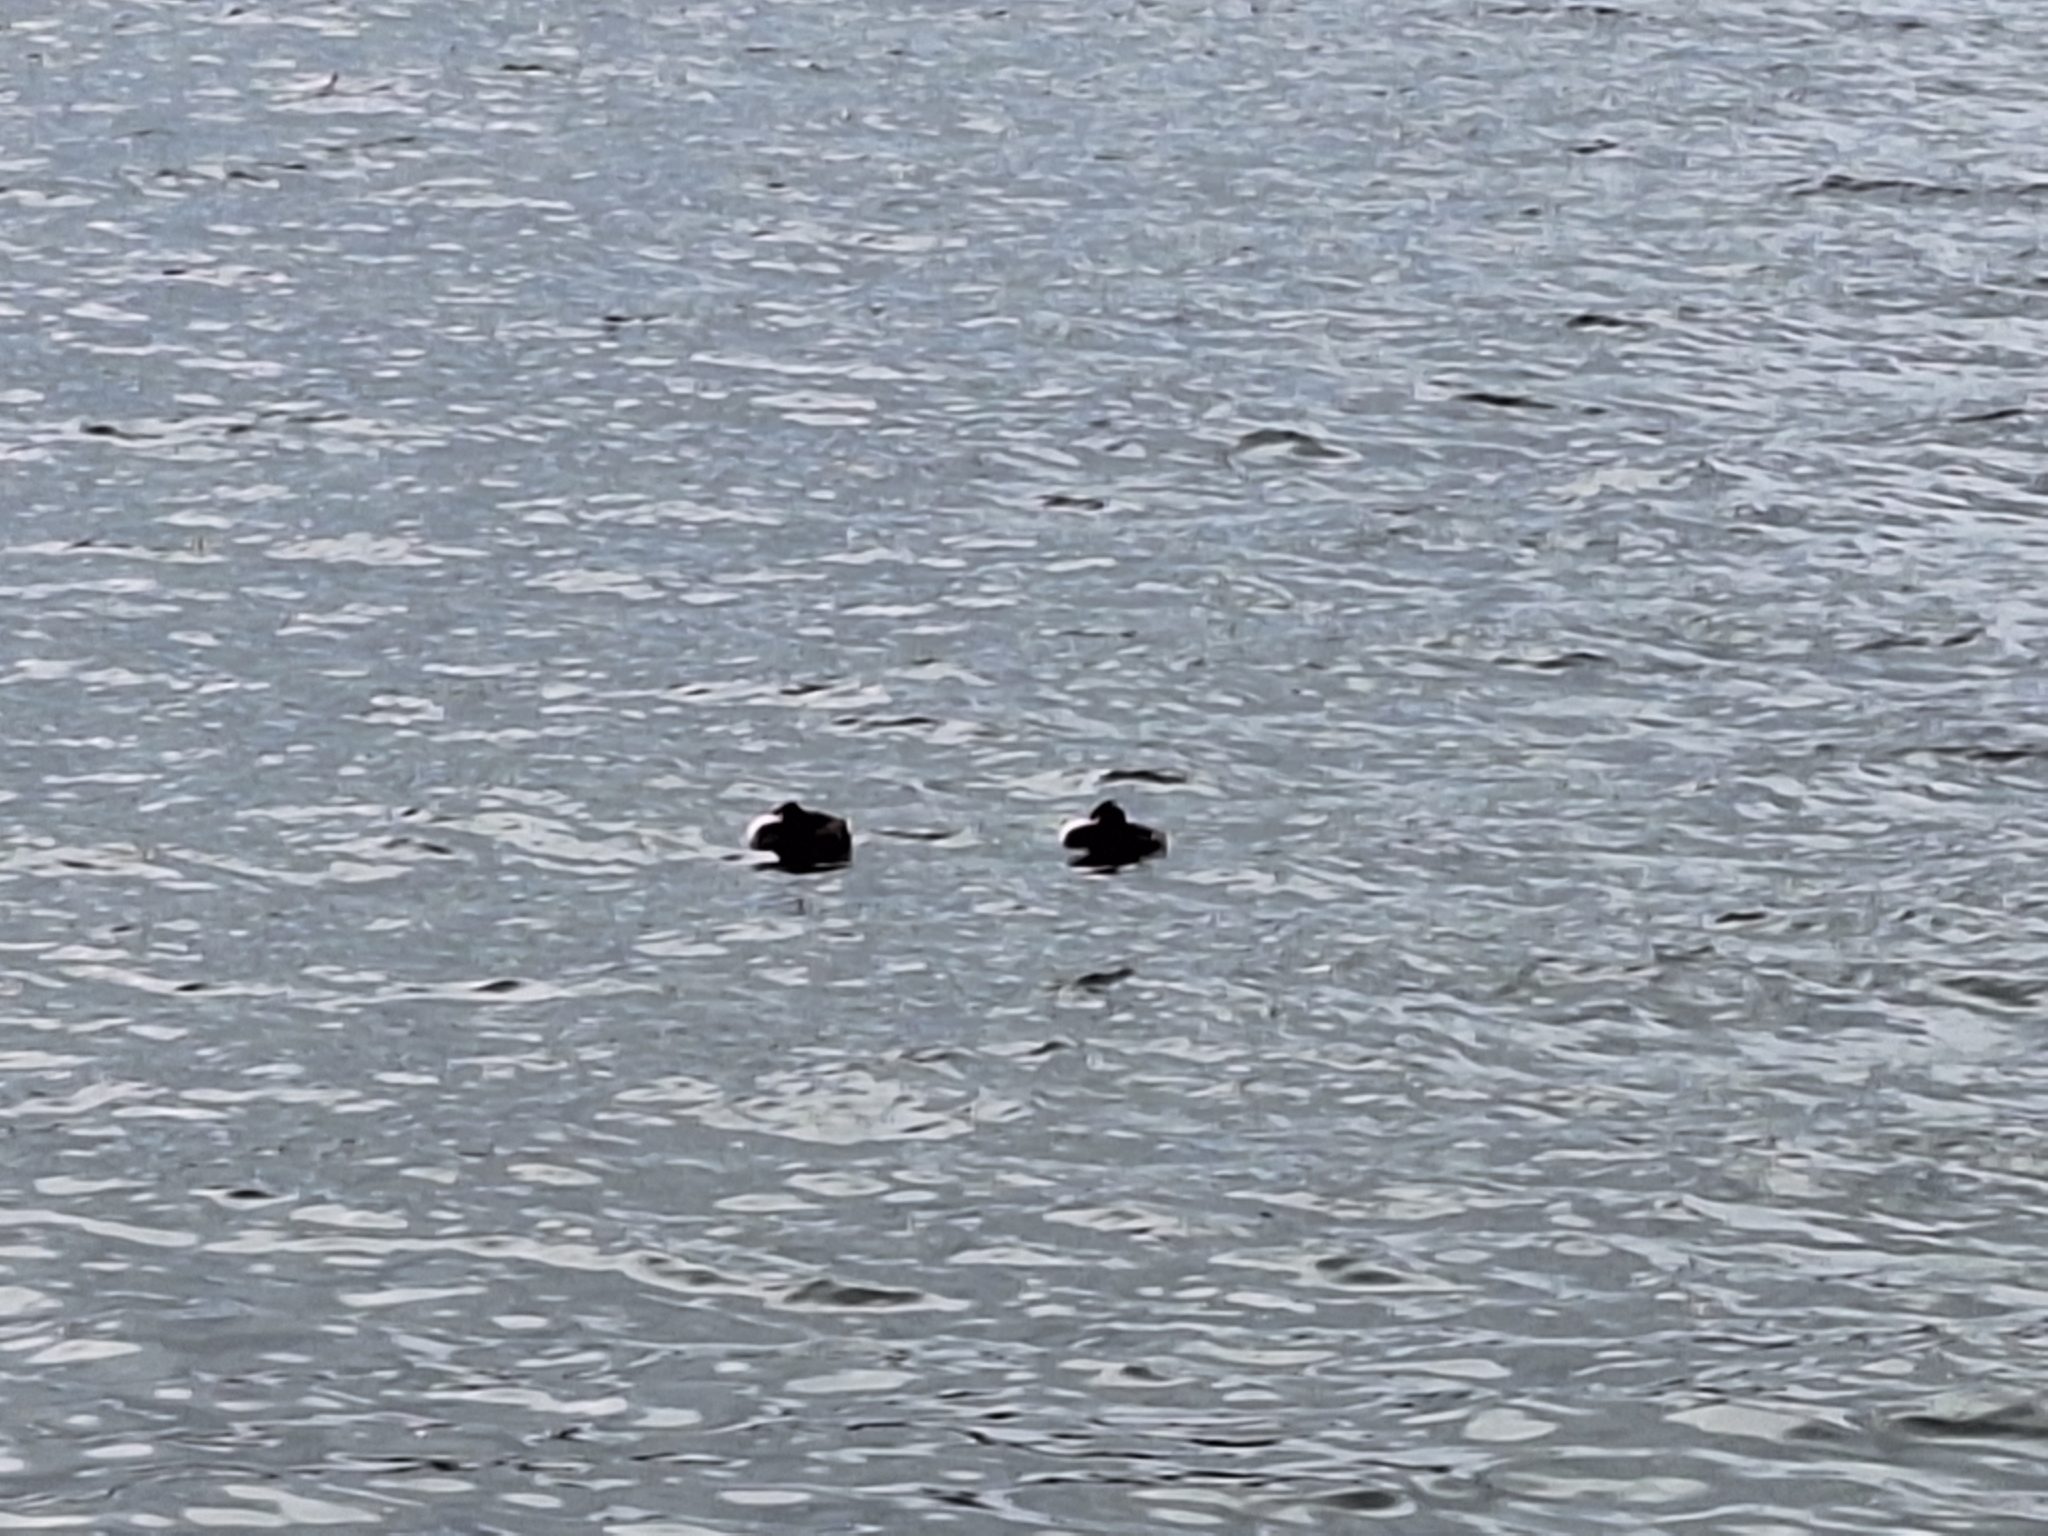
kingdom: Animalia
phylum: Chordata
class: Aves
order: Podicipediformes
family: Podicipedidae
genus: Podiceps
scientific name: Podiceps cristatus
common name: Great crested grebe
